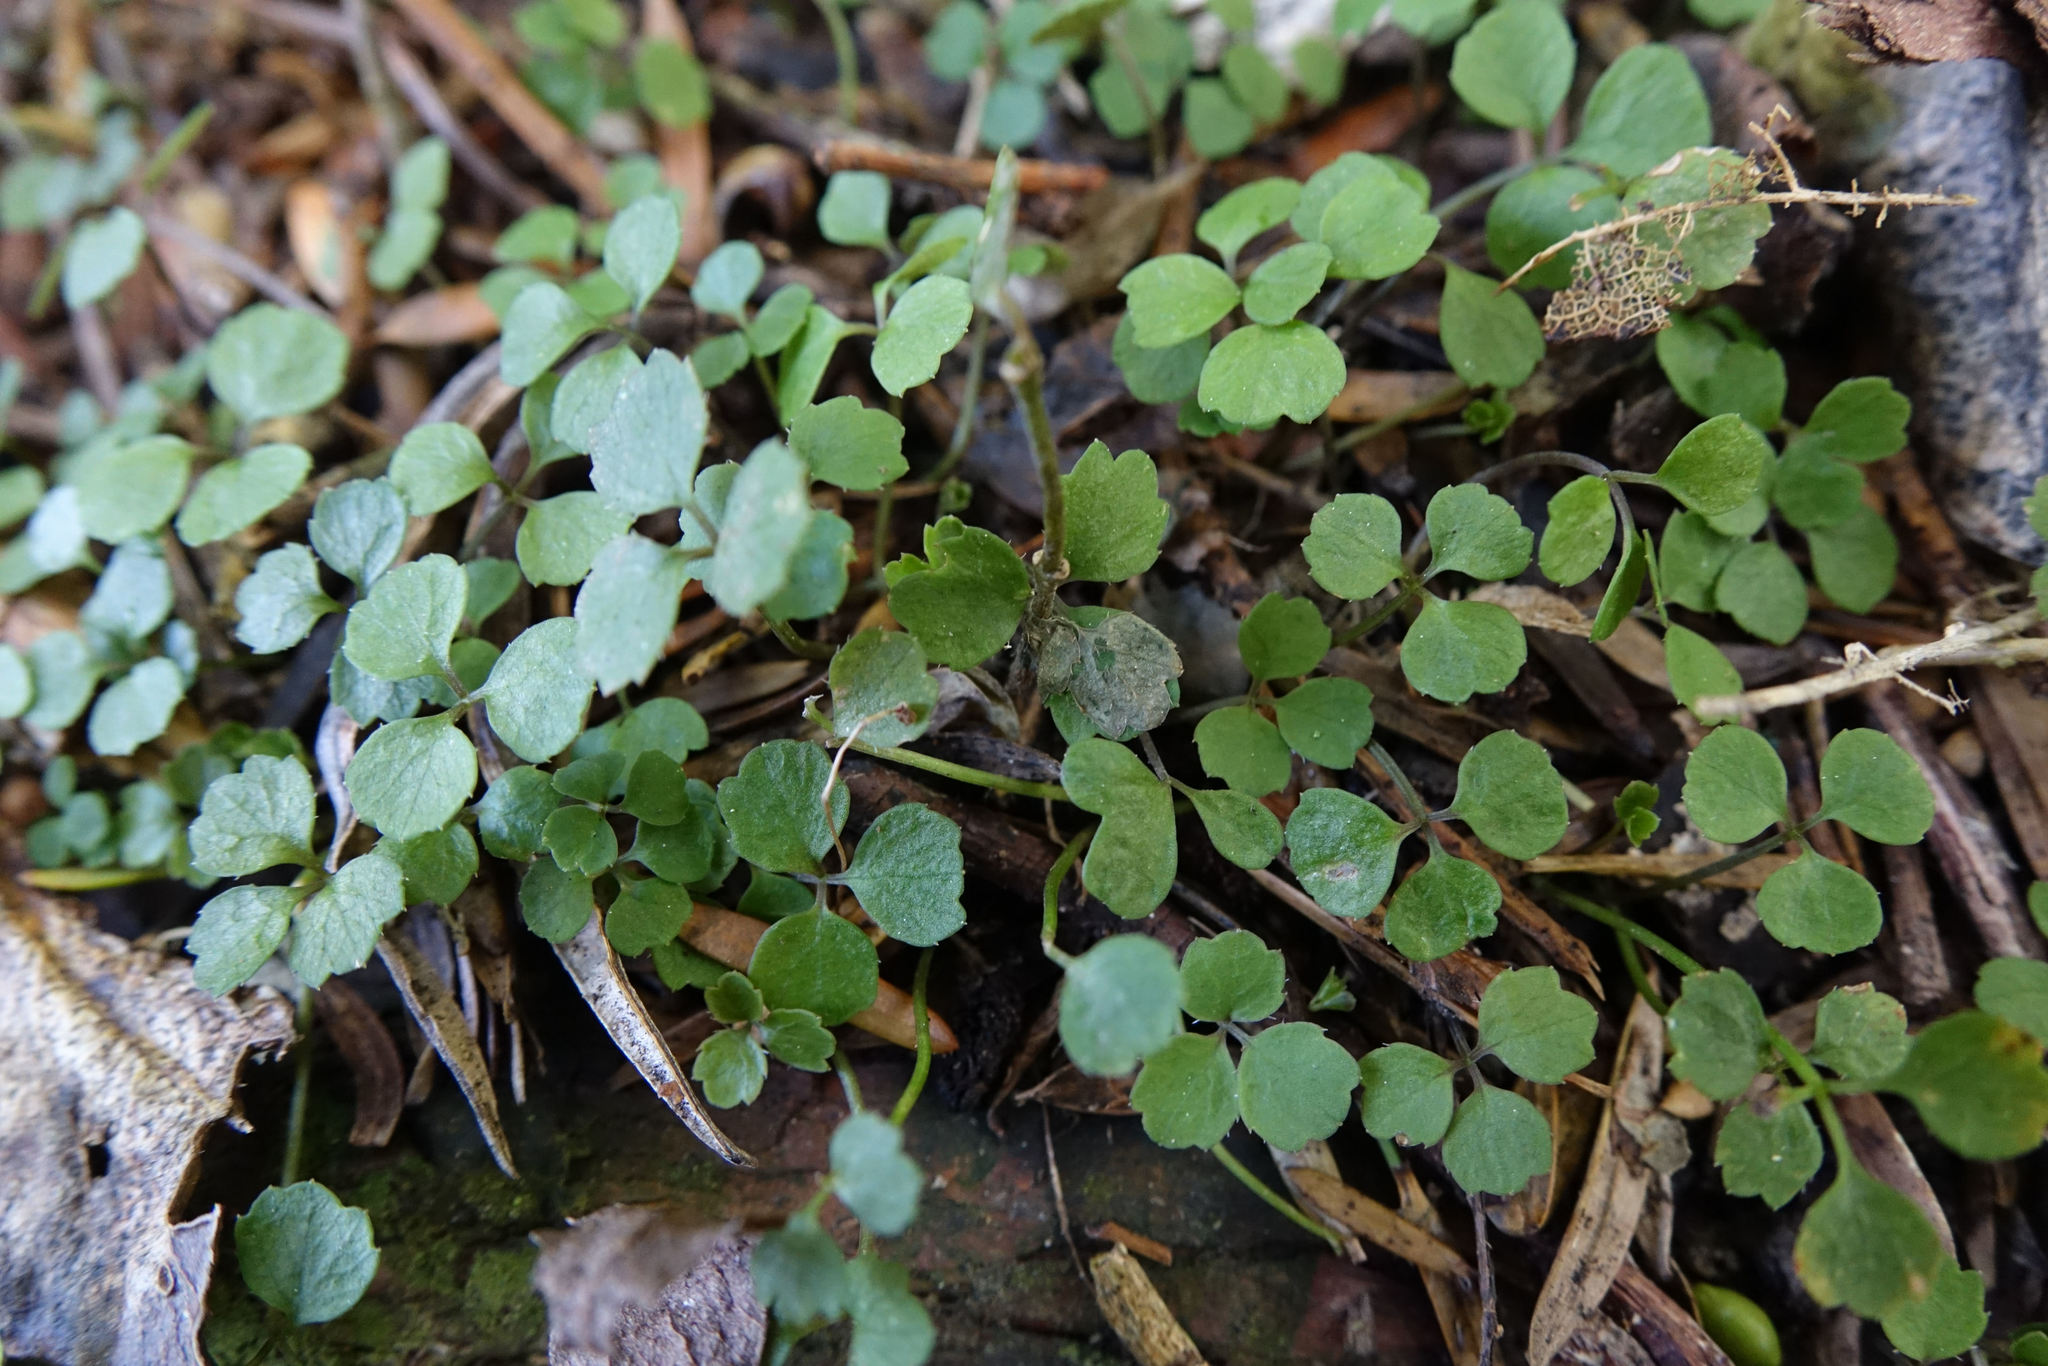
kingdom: Plantae
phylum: Tracheophyta
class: Magnoliopsida
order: Apiales
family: Apiaceae
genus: Azorella
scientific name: Azorella hookeri
